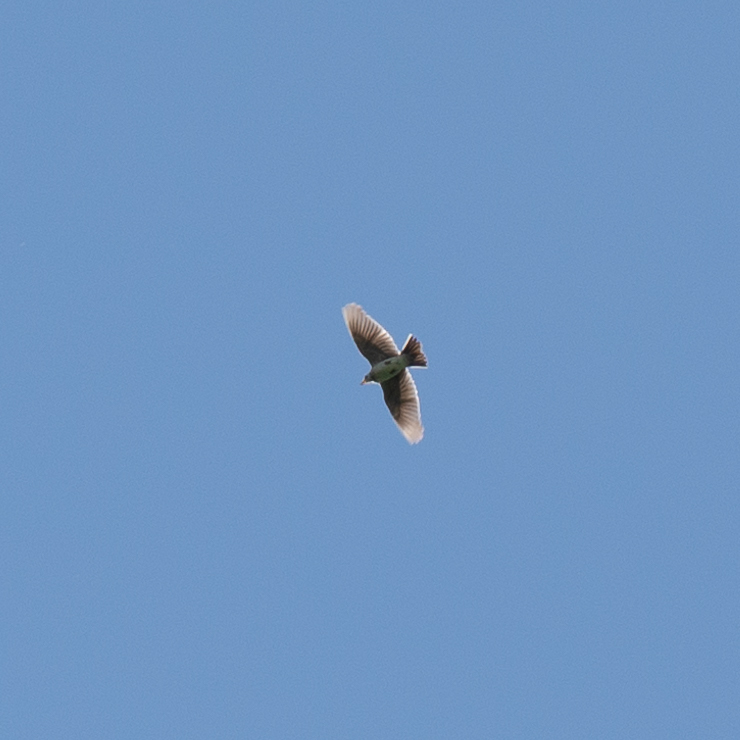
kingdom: Animalia
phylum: Chordata
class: Aves
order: Passeriformes
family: Alaudidae
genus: Alauda
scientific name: Alauda arvensis
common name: Eurasian skylark
